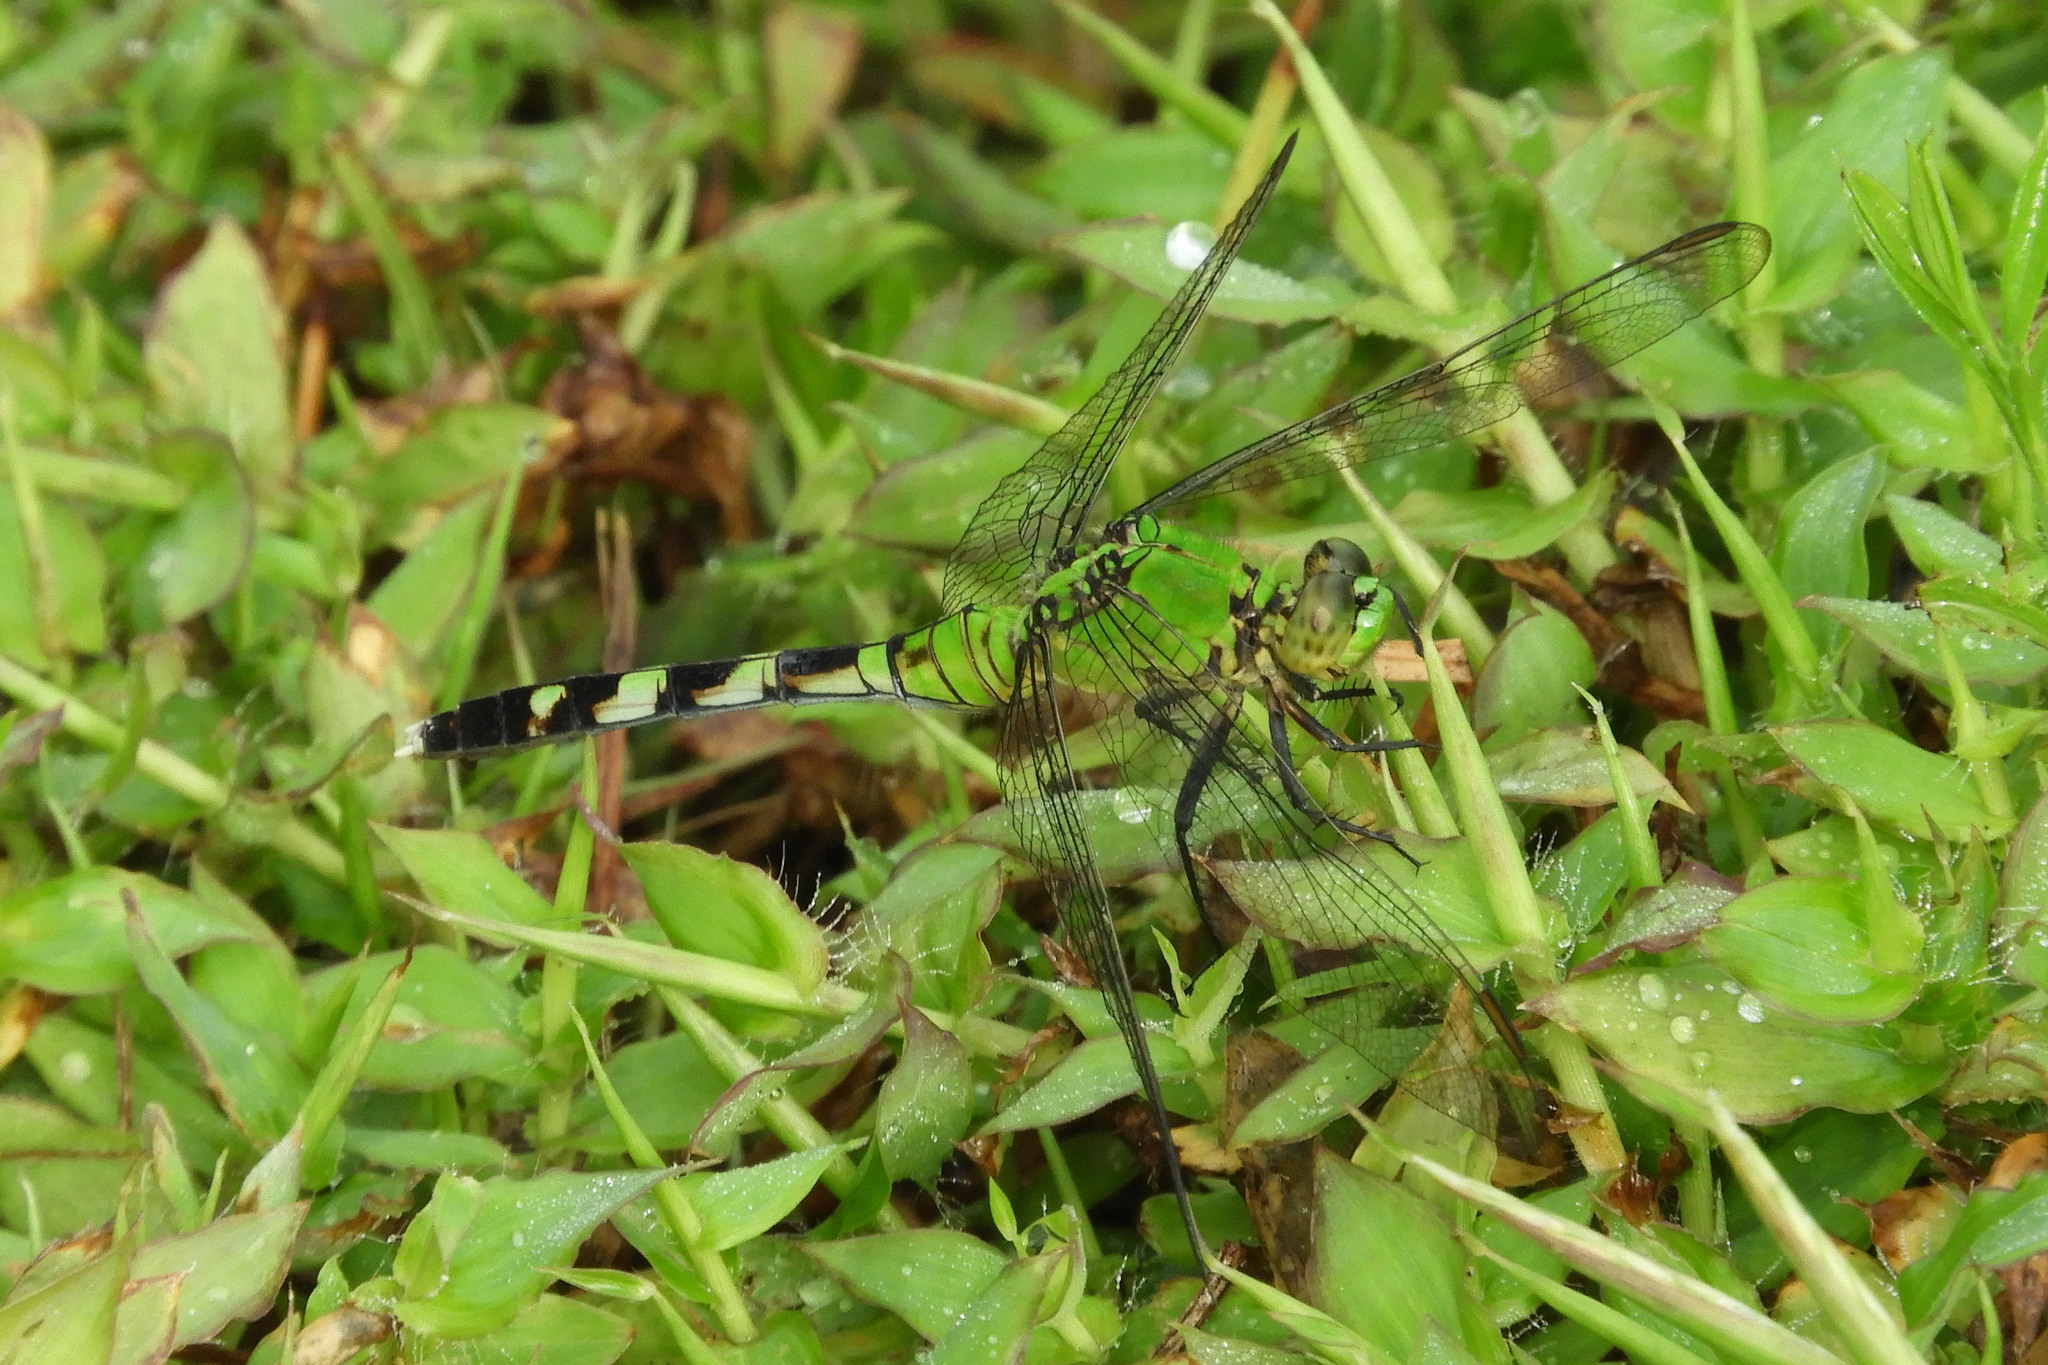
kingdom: Animalia
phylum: Arthropoda
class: Insecta
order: Odonata
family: Libellulidae
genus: Erythemis
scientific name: Erythemis simplicicollis
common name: Eastern pondhawk
